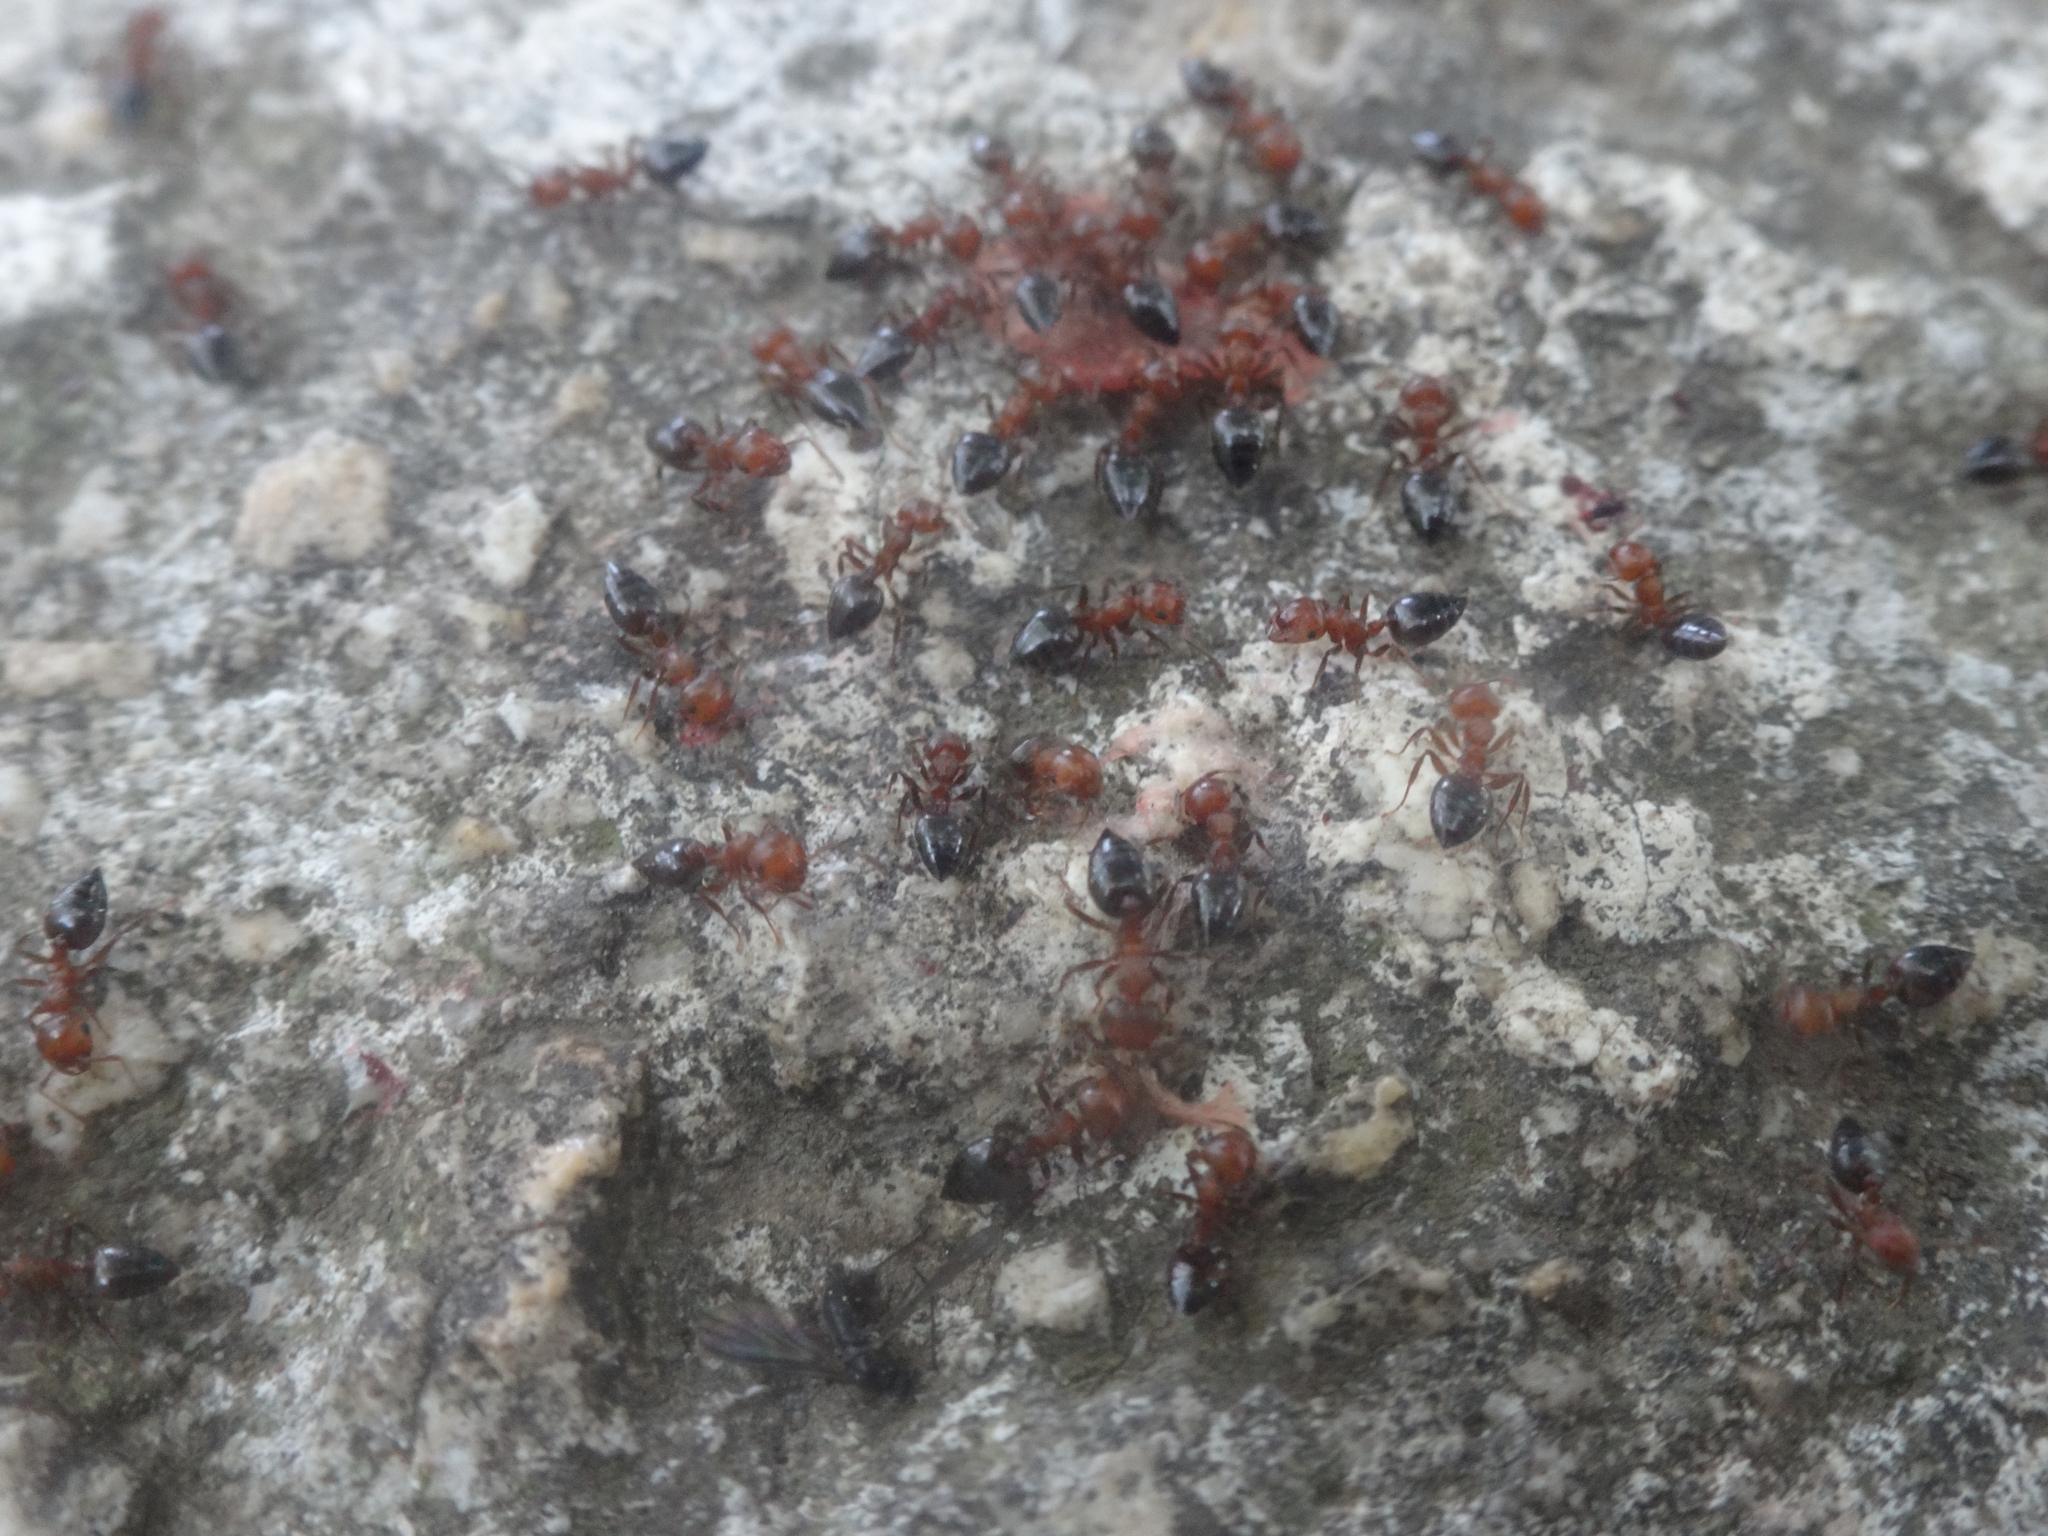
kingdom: Animalia
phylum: Arthropoda
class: Insecta
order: Hymenoptera
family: Formicidae
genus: Crematogaster
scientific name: Crematogaster schmidti
